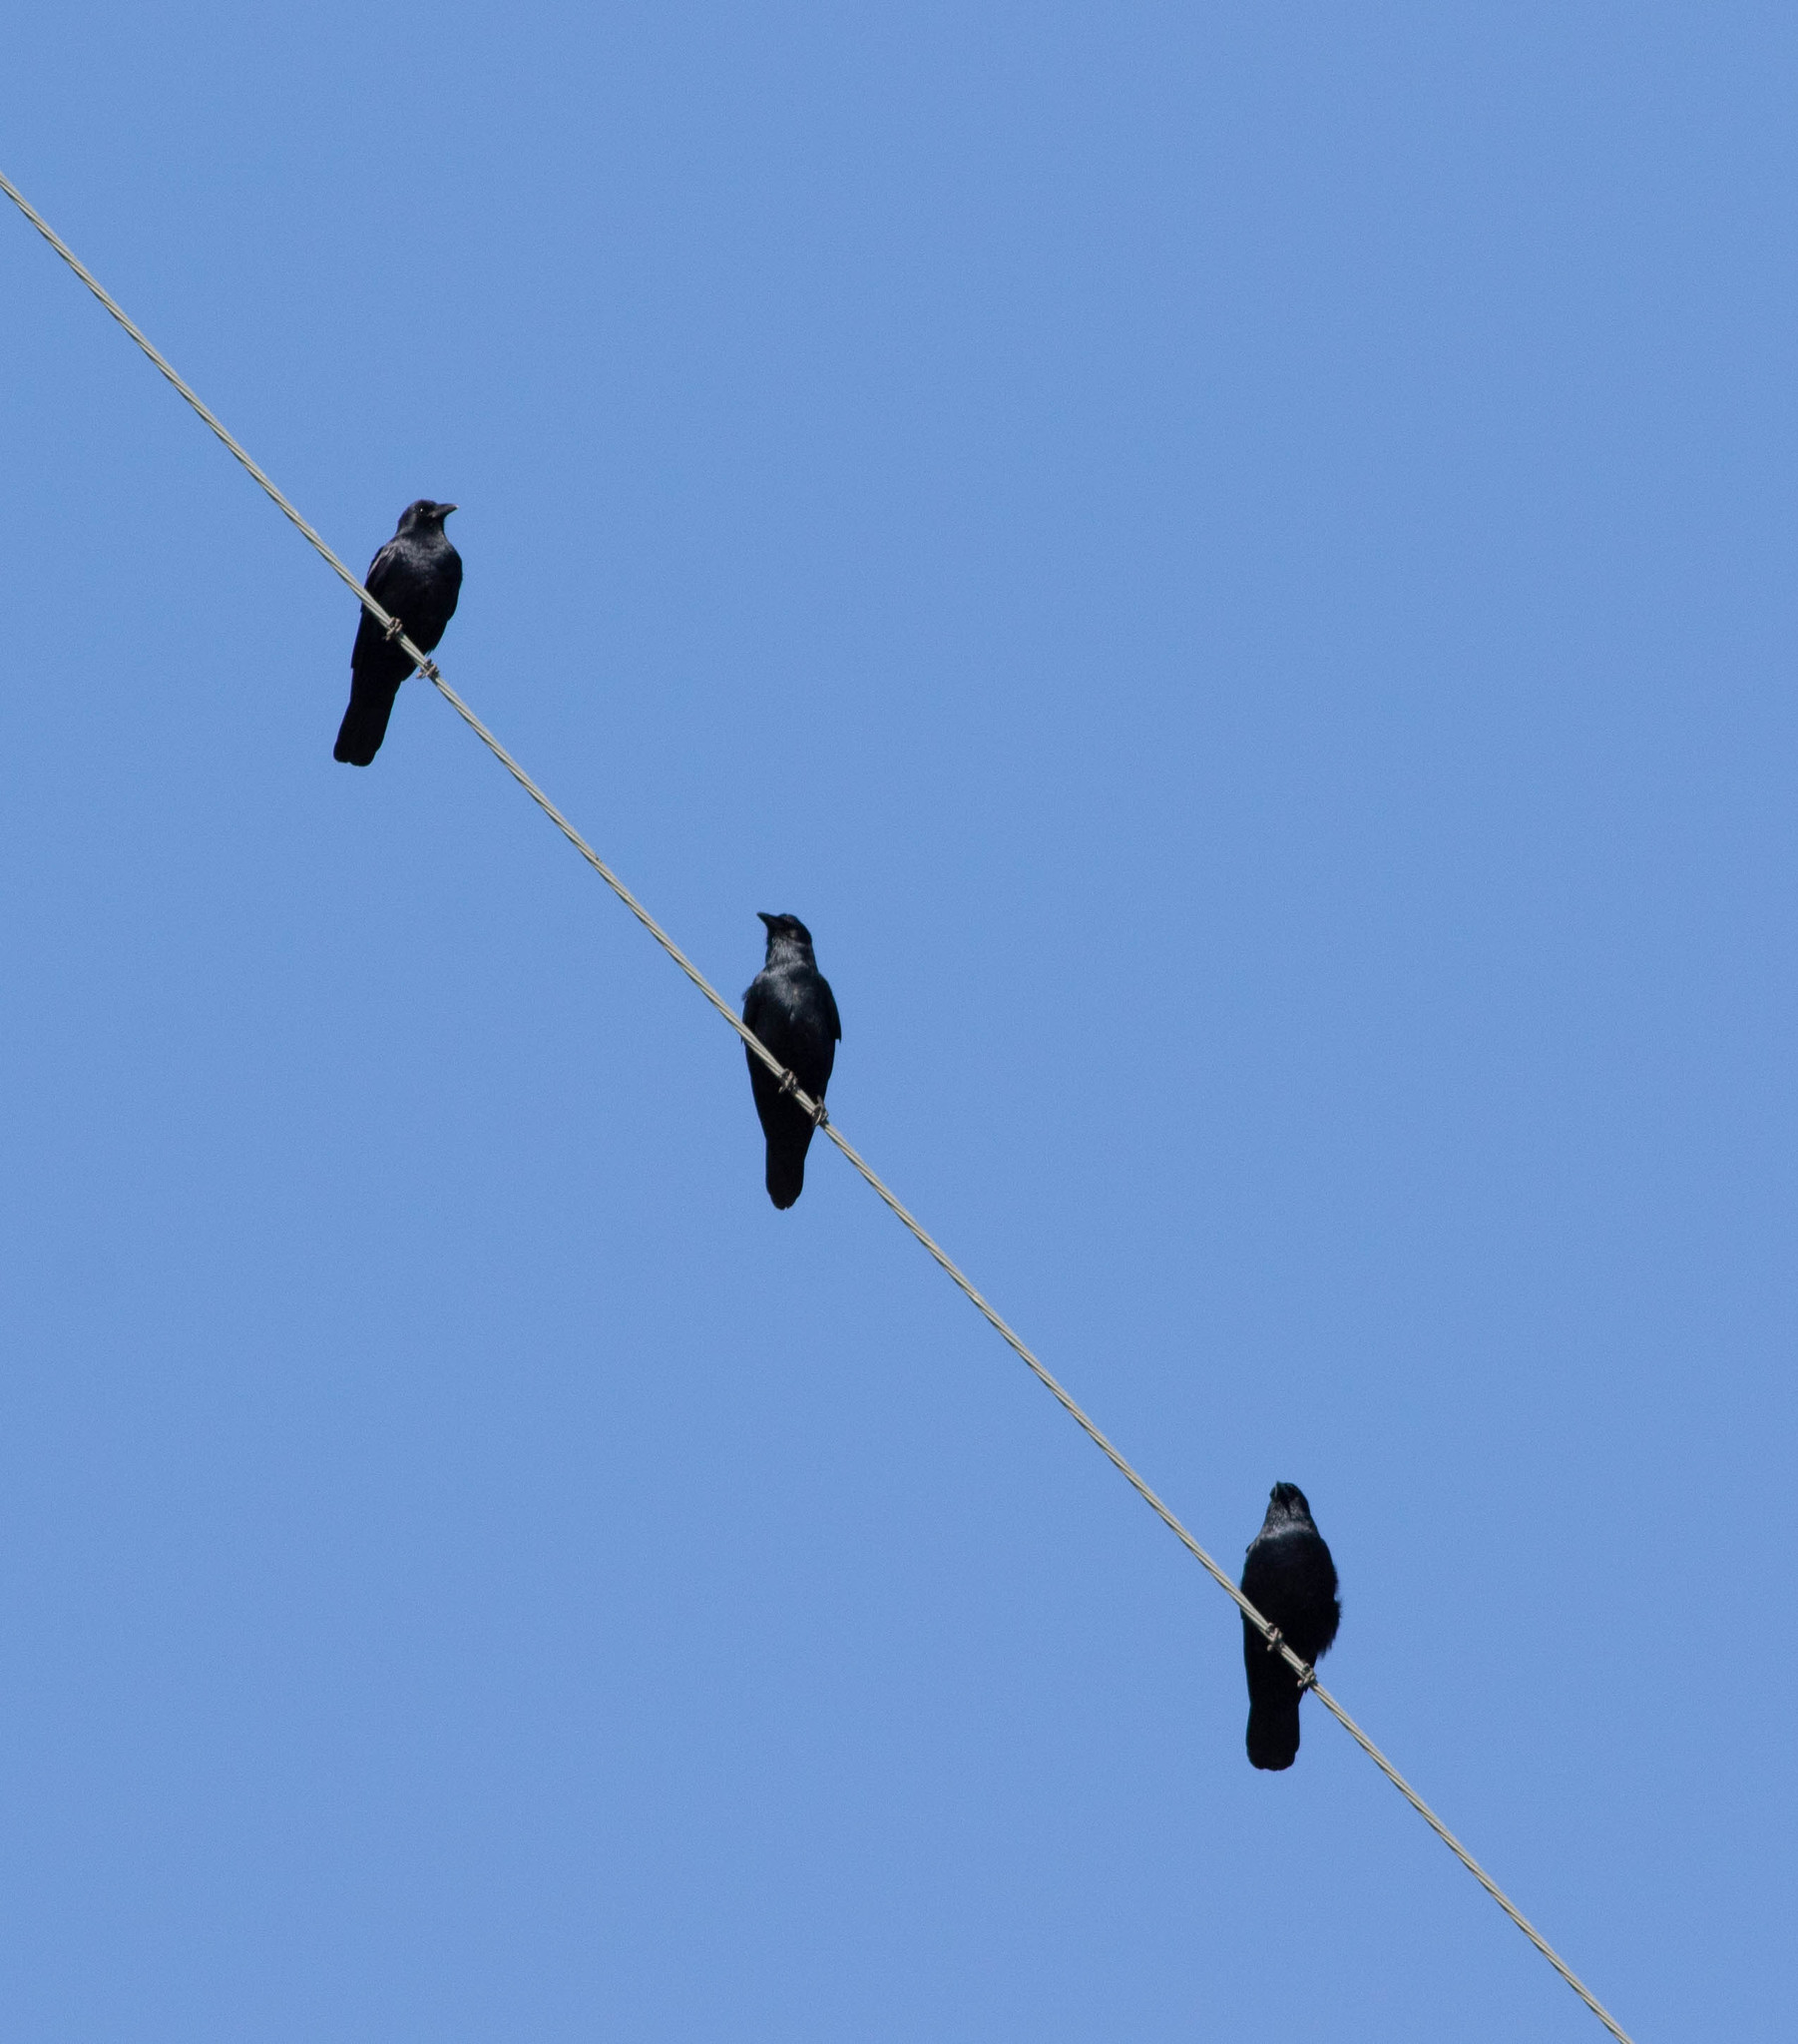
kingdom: Animalia
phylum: Chordata
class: Aves
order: Passeriformes
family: Corvidae
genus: Corvus
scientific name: Corvus ossifragus
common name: Fish crow
